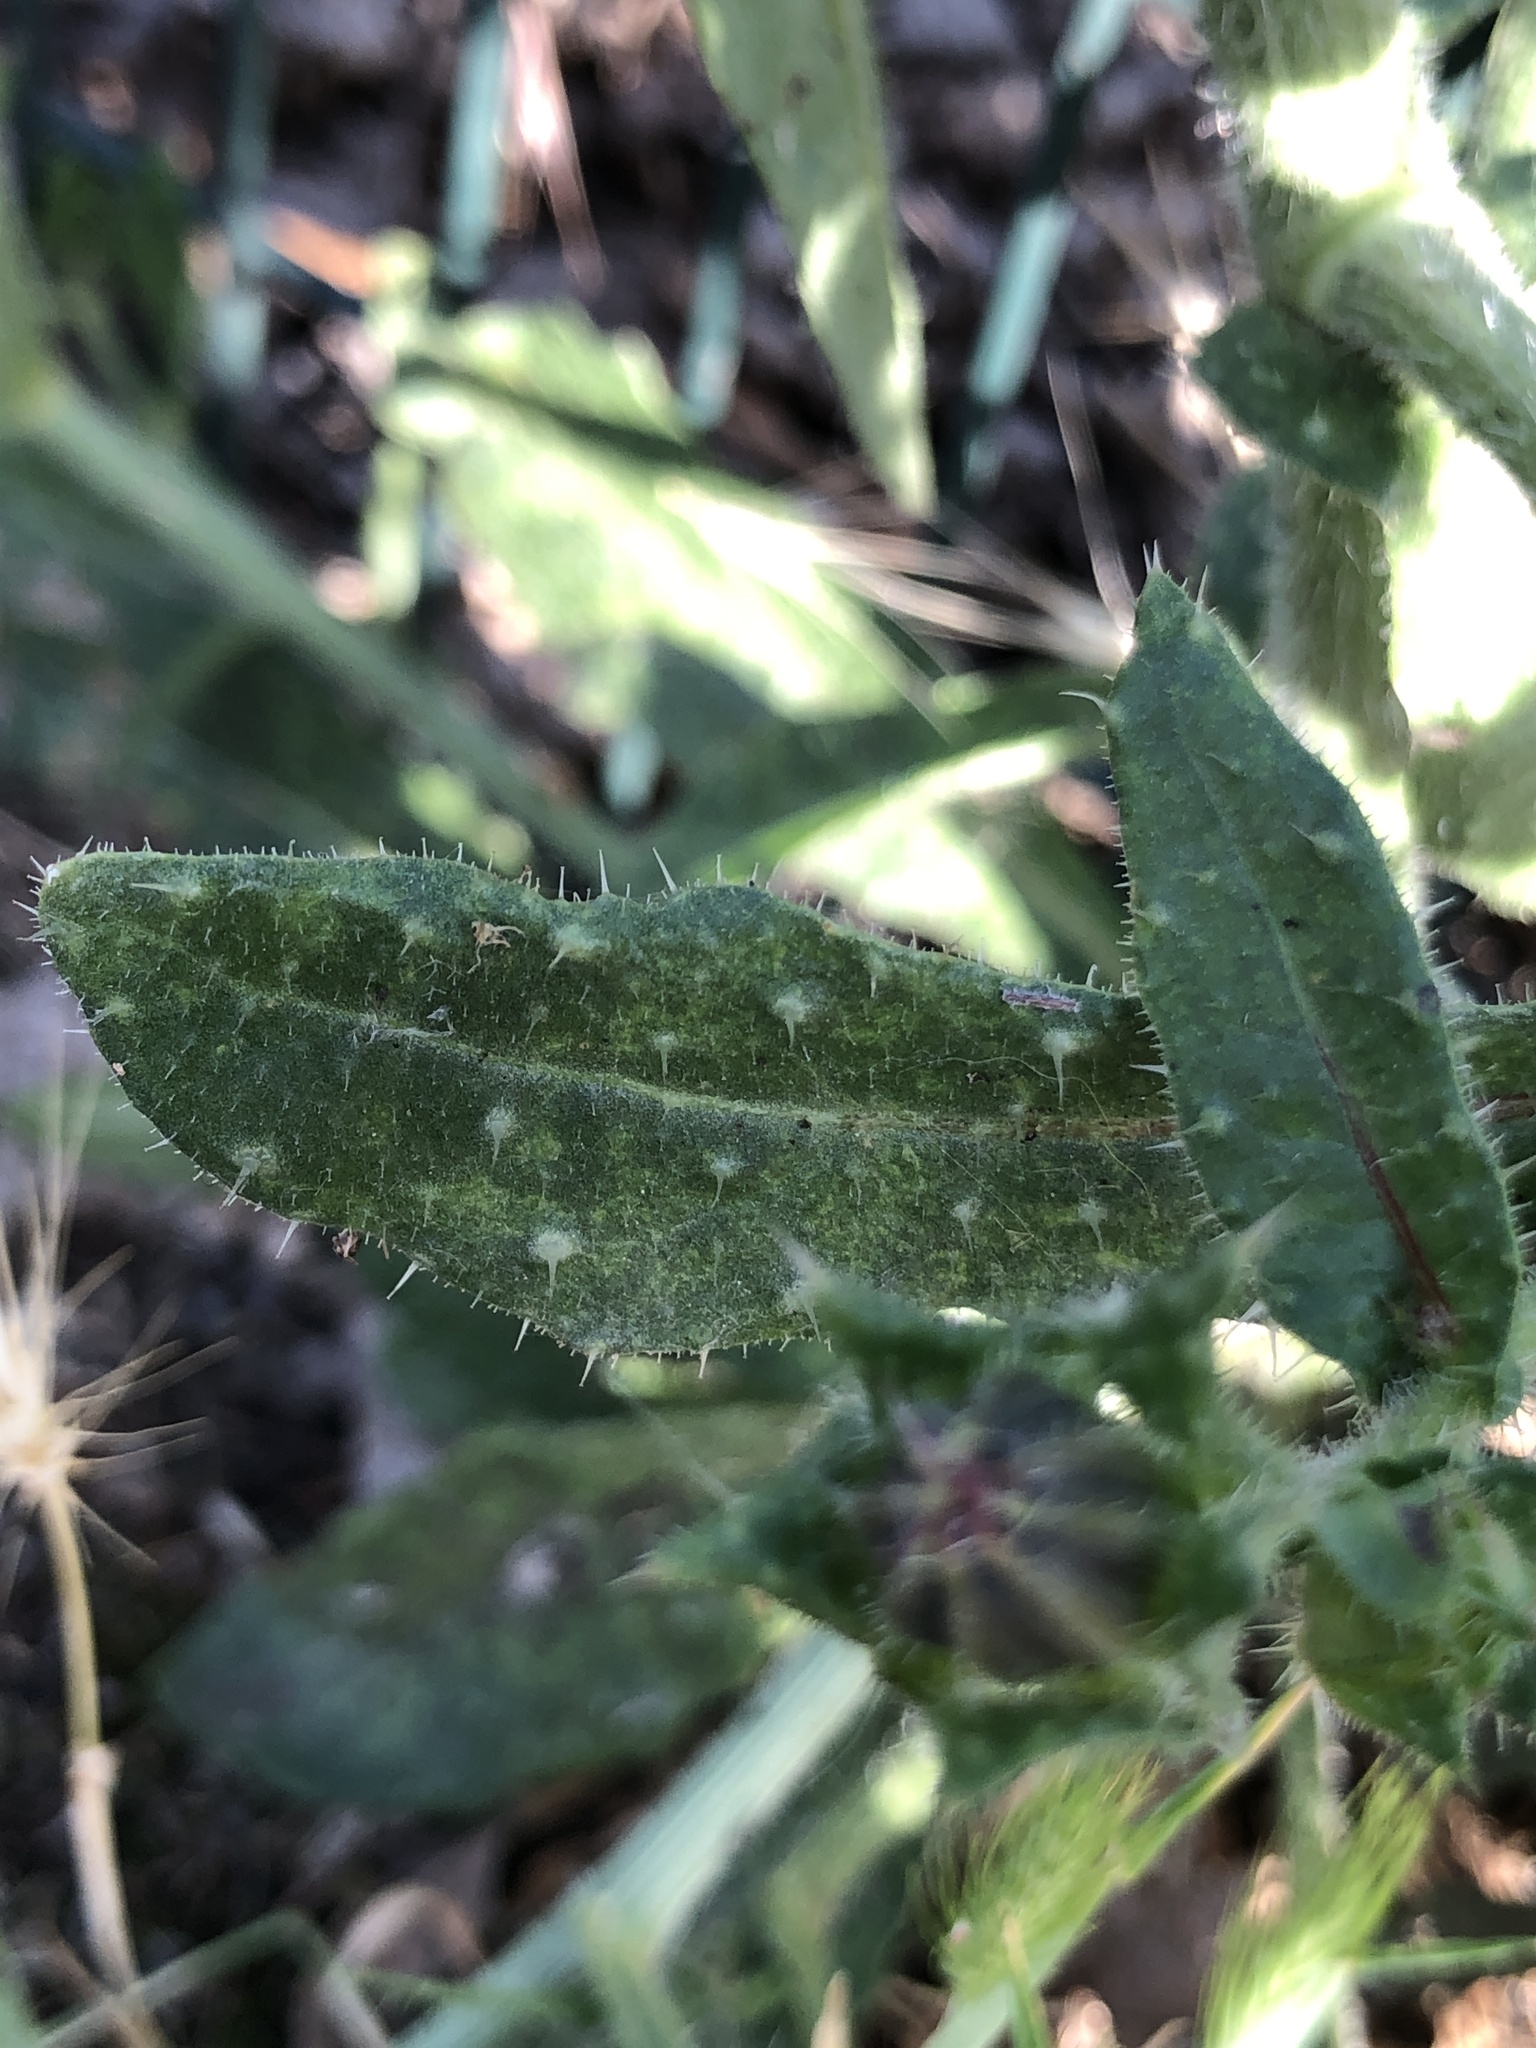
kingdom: Plantae
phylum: Tracheophyta
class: Magnoliopsida
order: Asterales
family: Asteraceae
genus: Helminthotheca
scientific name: Helminthotheca echioides
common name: Ox-tongue
